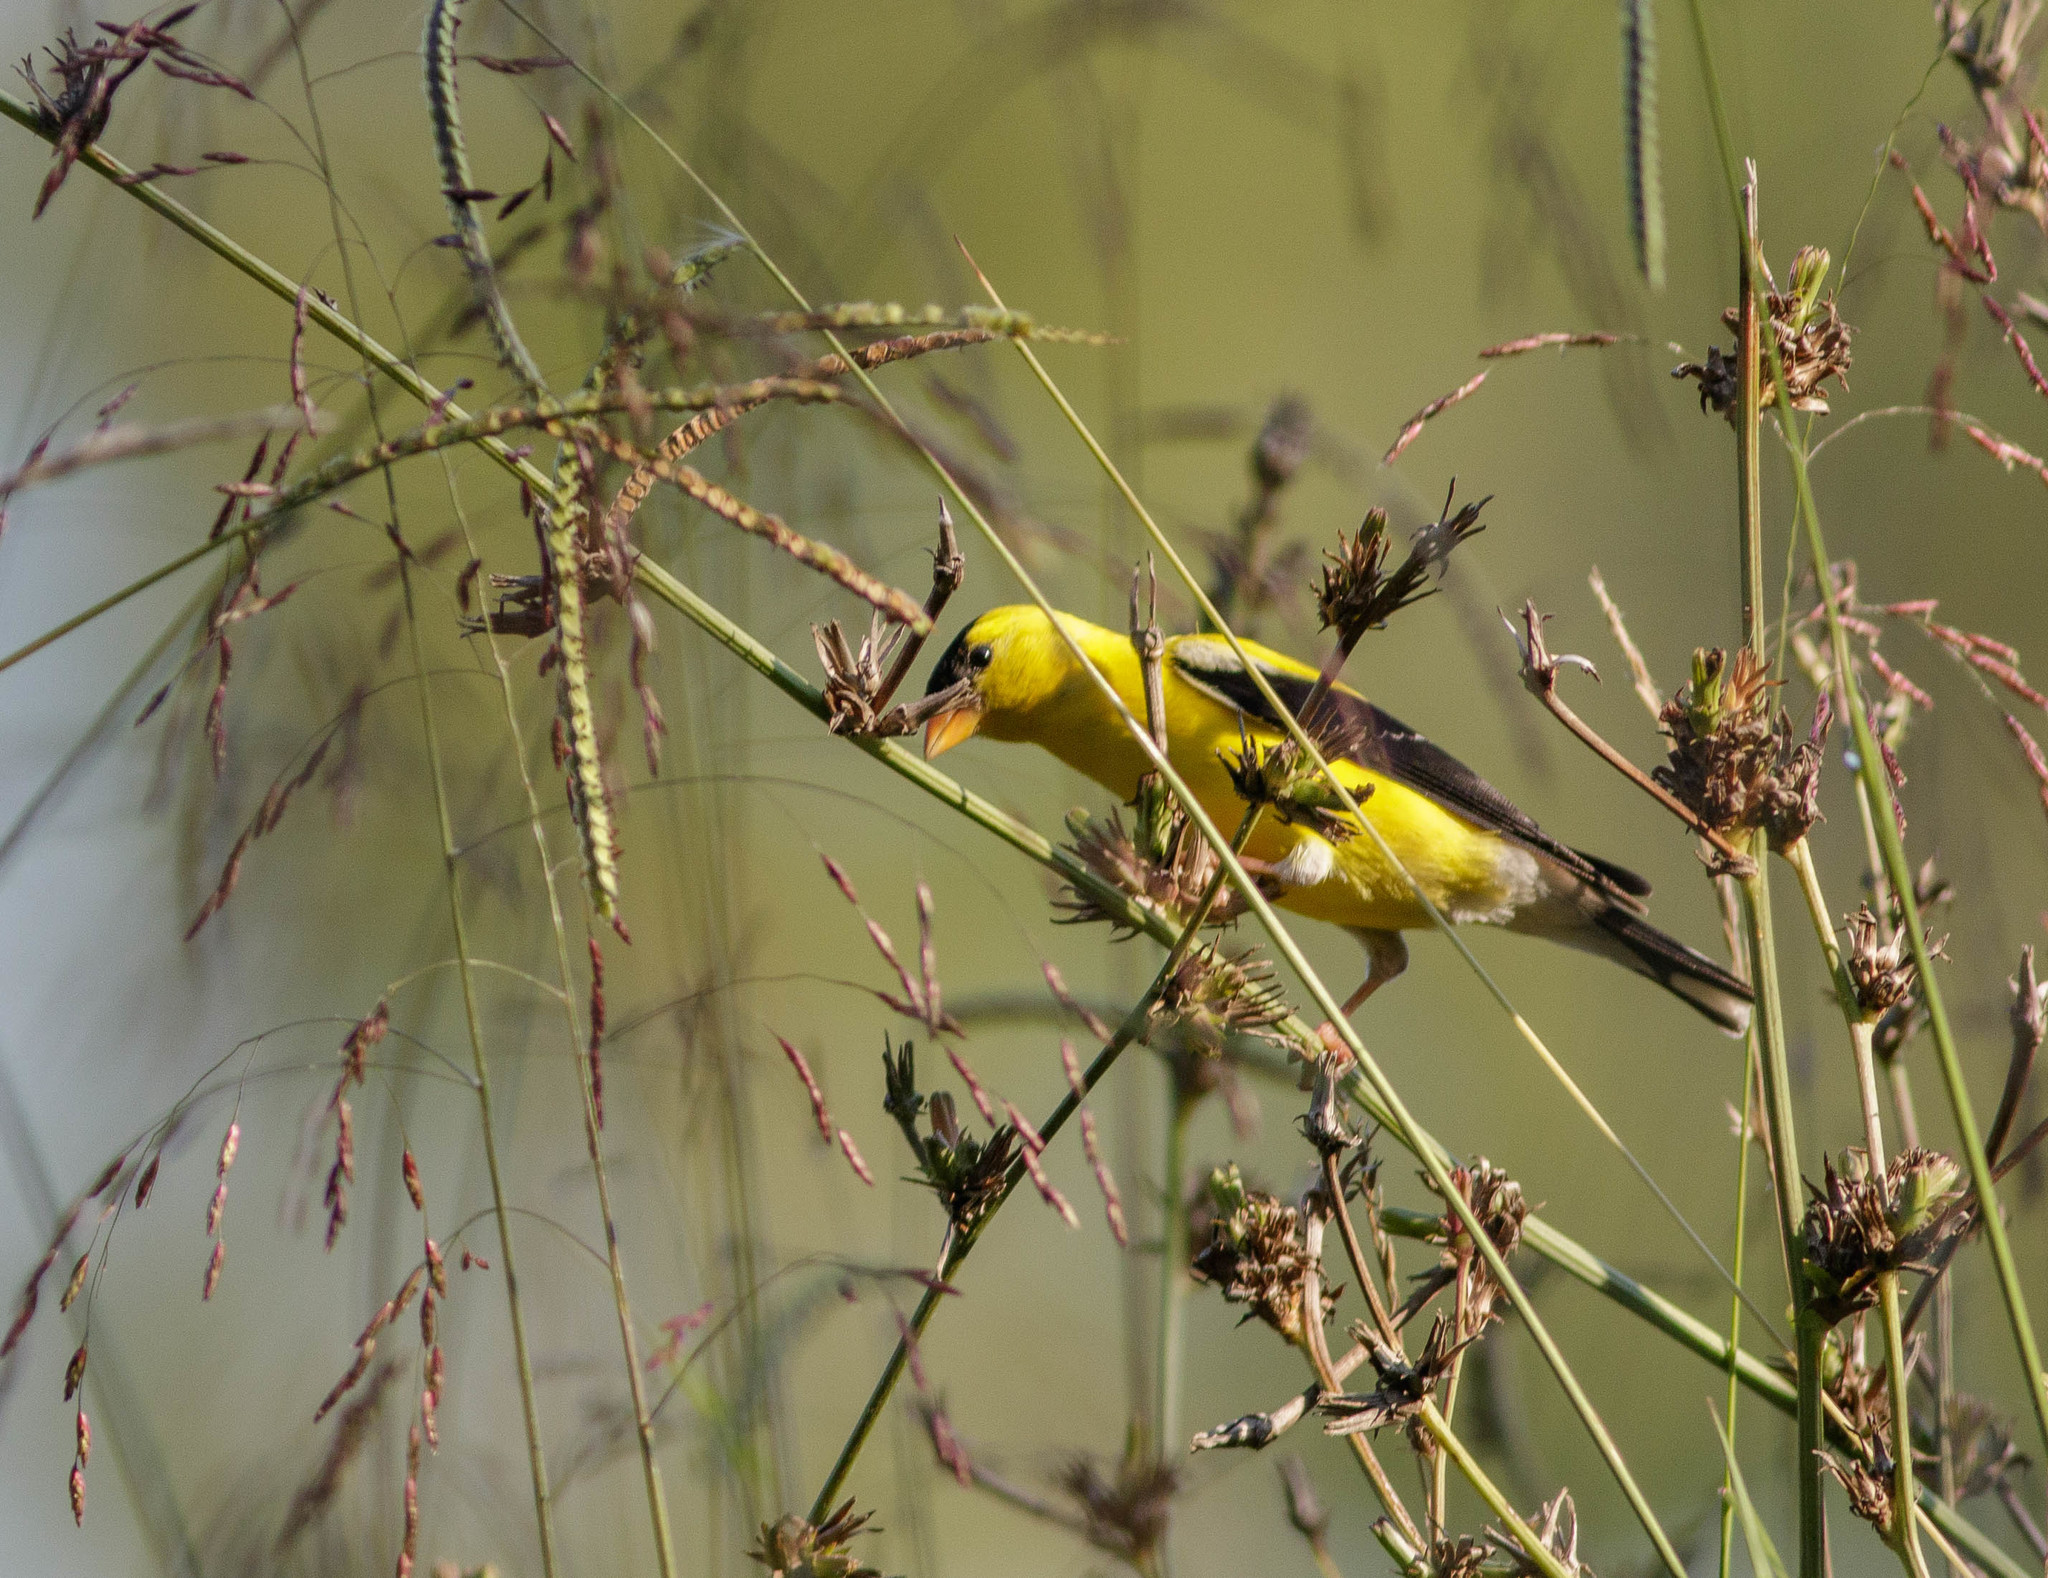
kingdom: Animalia
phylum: Chordata
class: Aves
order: Passeriformes
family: Fringillidae
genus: Spinus
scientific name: Spinus tristis
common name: American goldfinch
